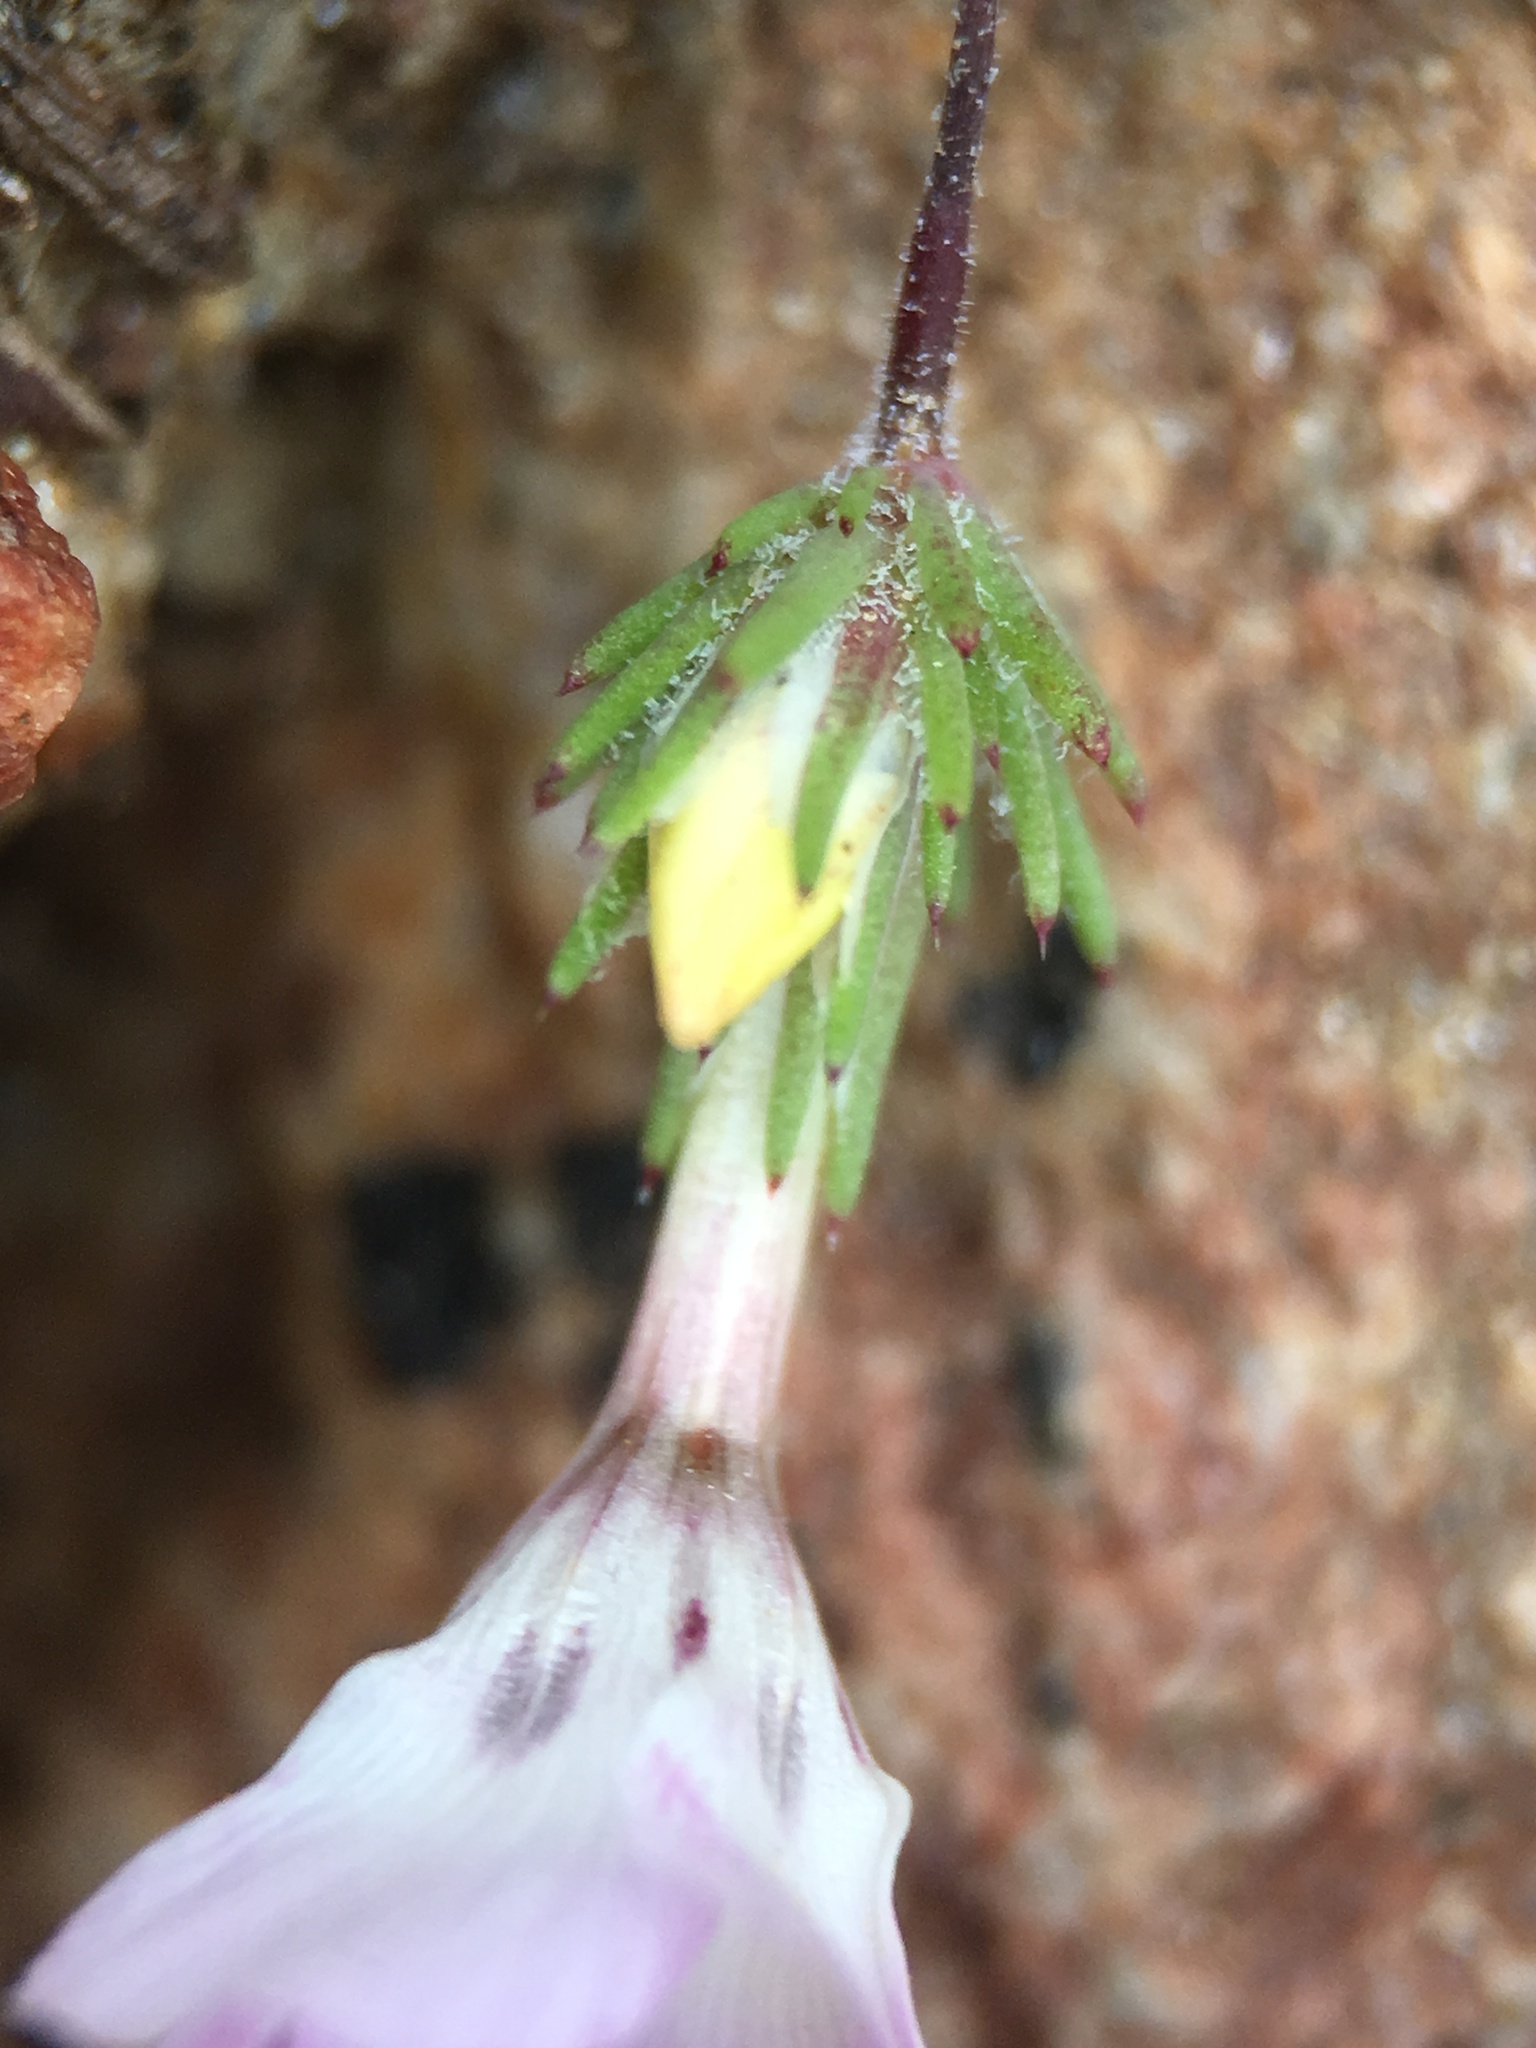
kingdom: Plantae
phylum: Tracheophyta
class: Magnoliopsida
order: Ericales
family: Polemoniaceae
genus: Linanthus
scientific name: Linanthus orcuttii
